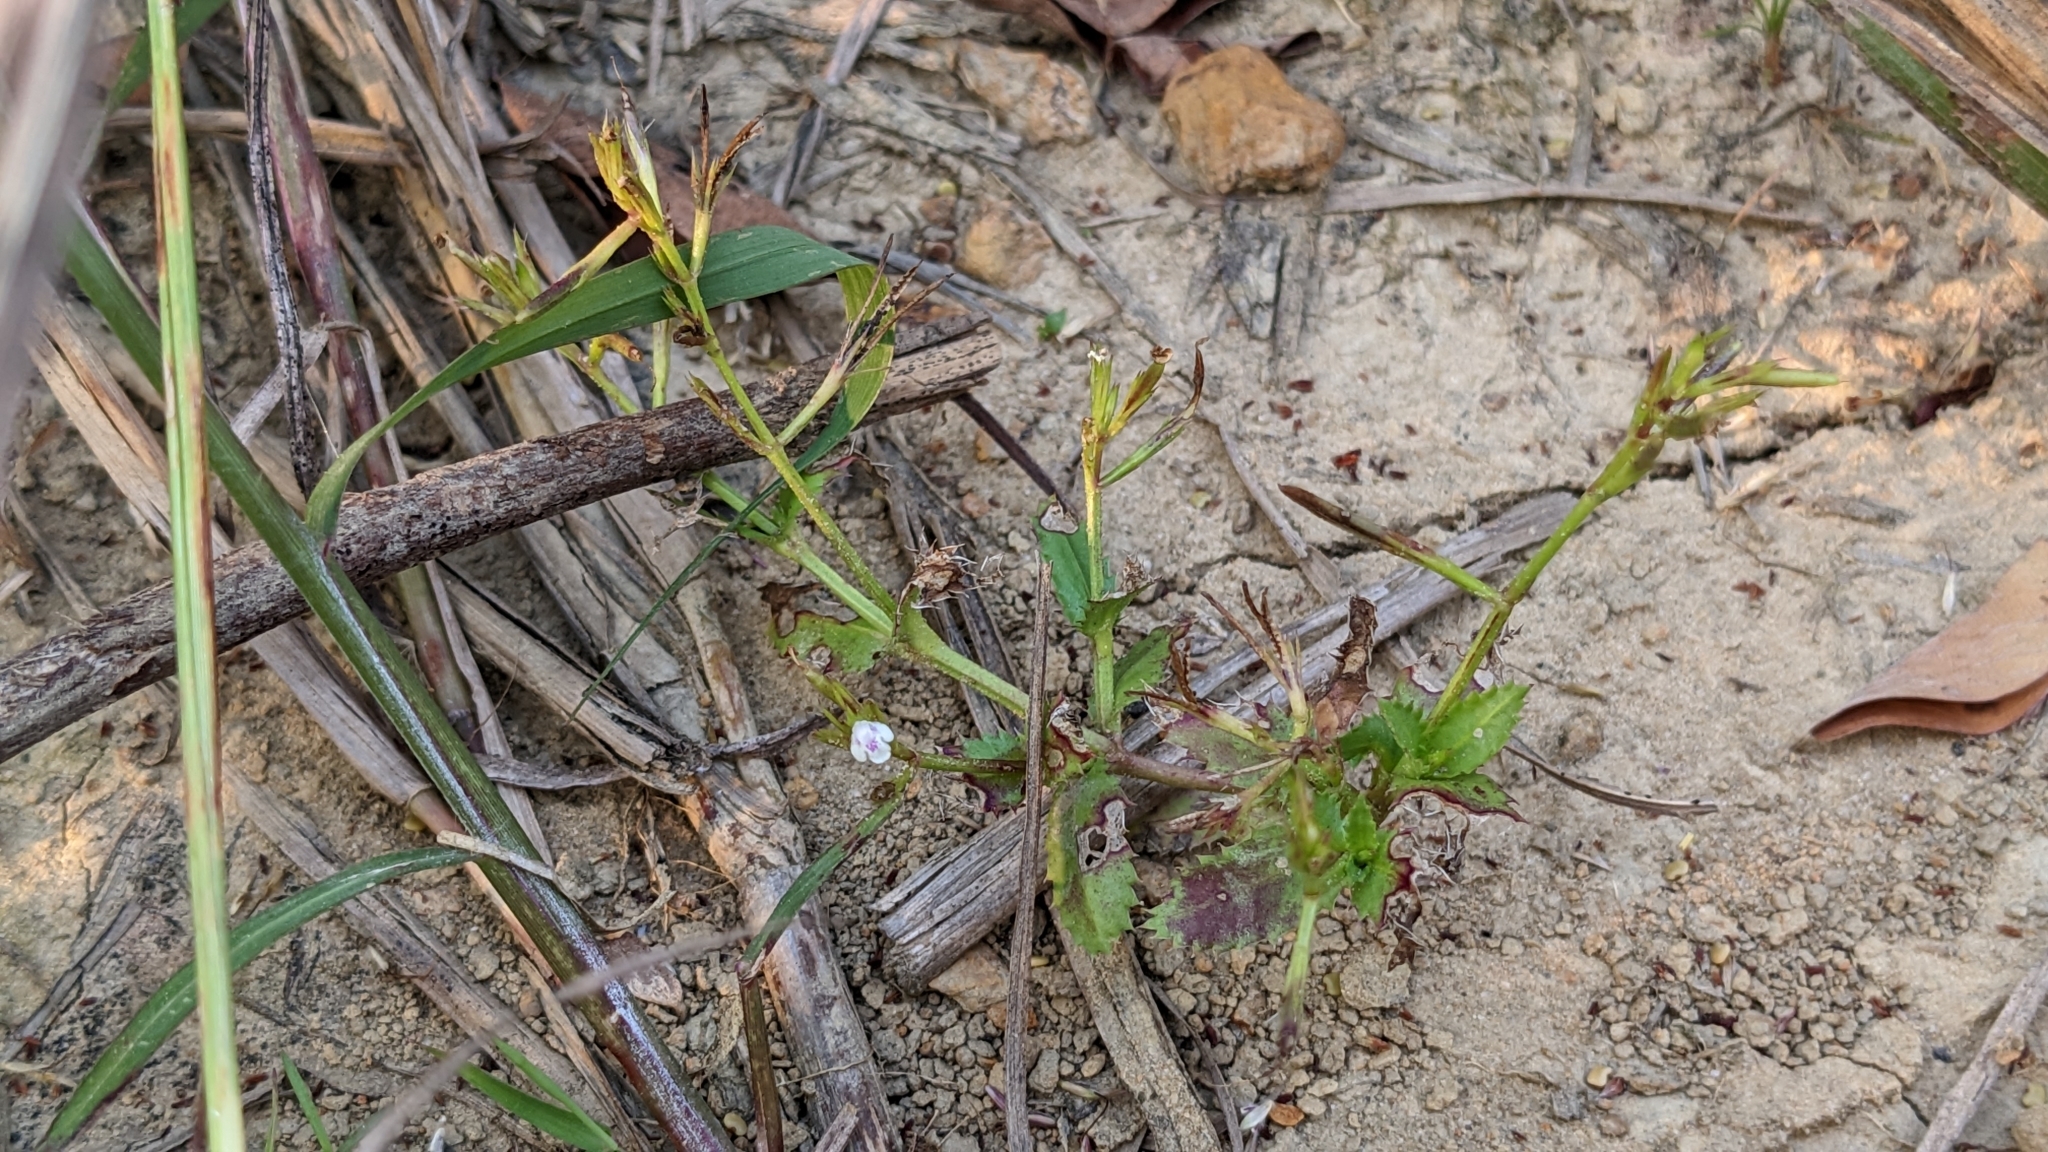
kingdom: Plantae
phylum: Tracheophyta
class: Magnoliopsida
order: Lamiales
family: Linderniaceae
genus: Bonnaya
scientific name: Bonnaya ciliata
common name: Hairy slitwort
